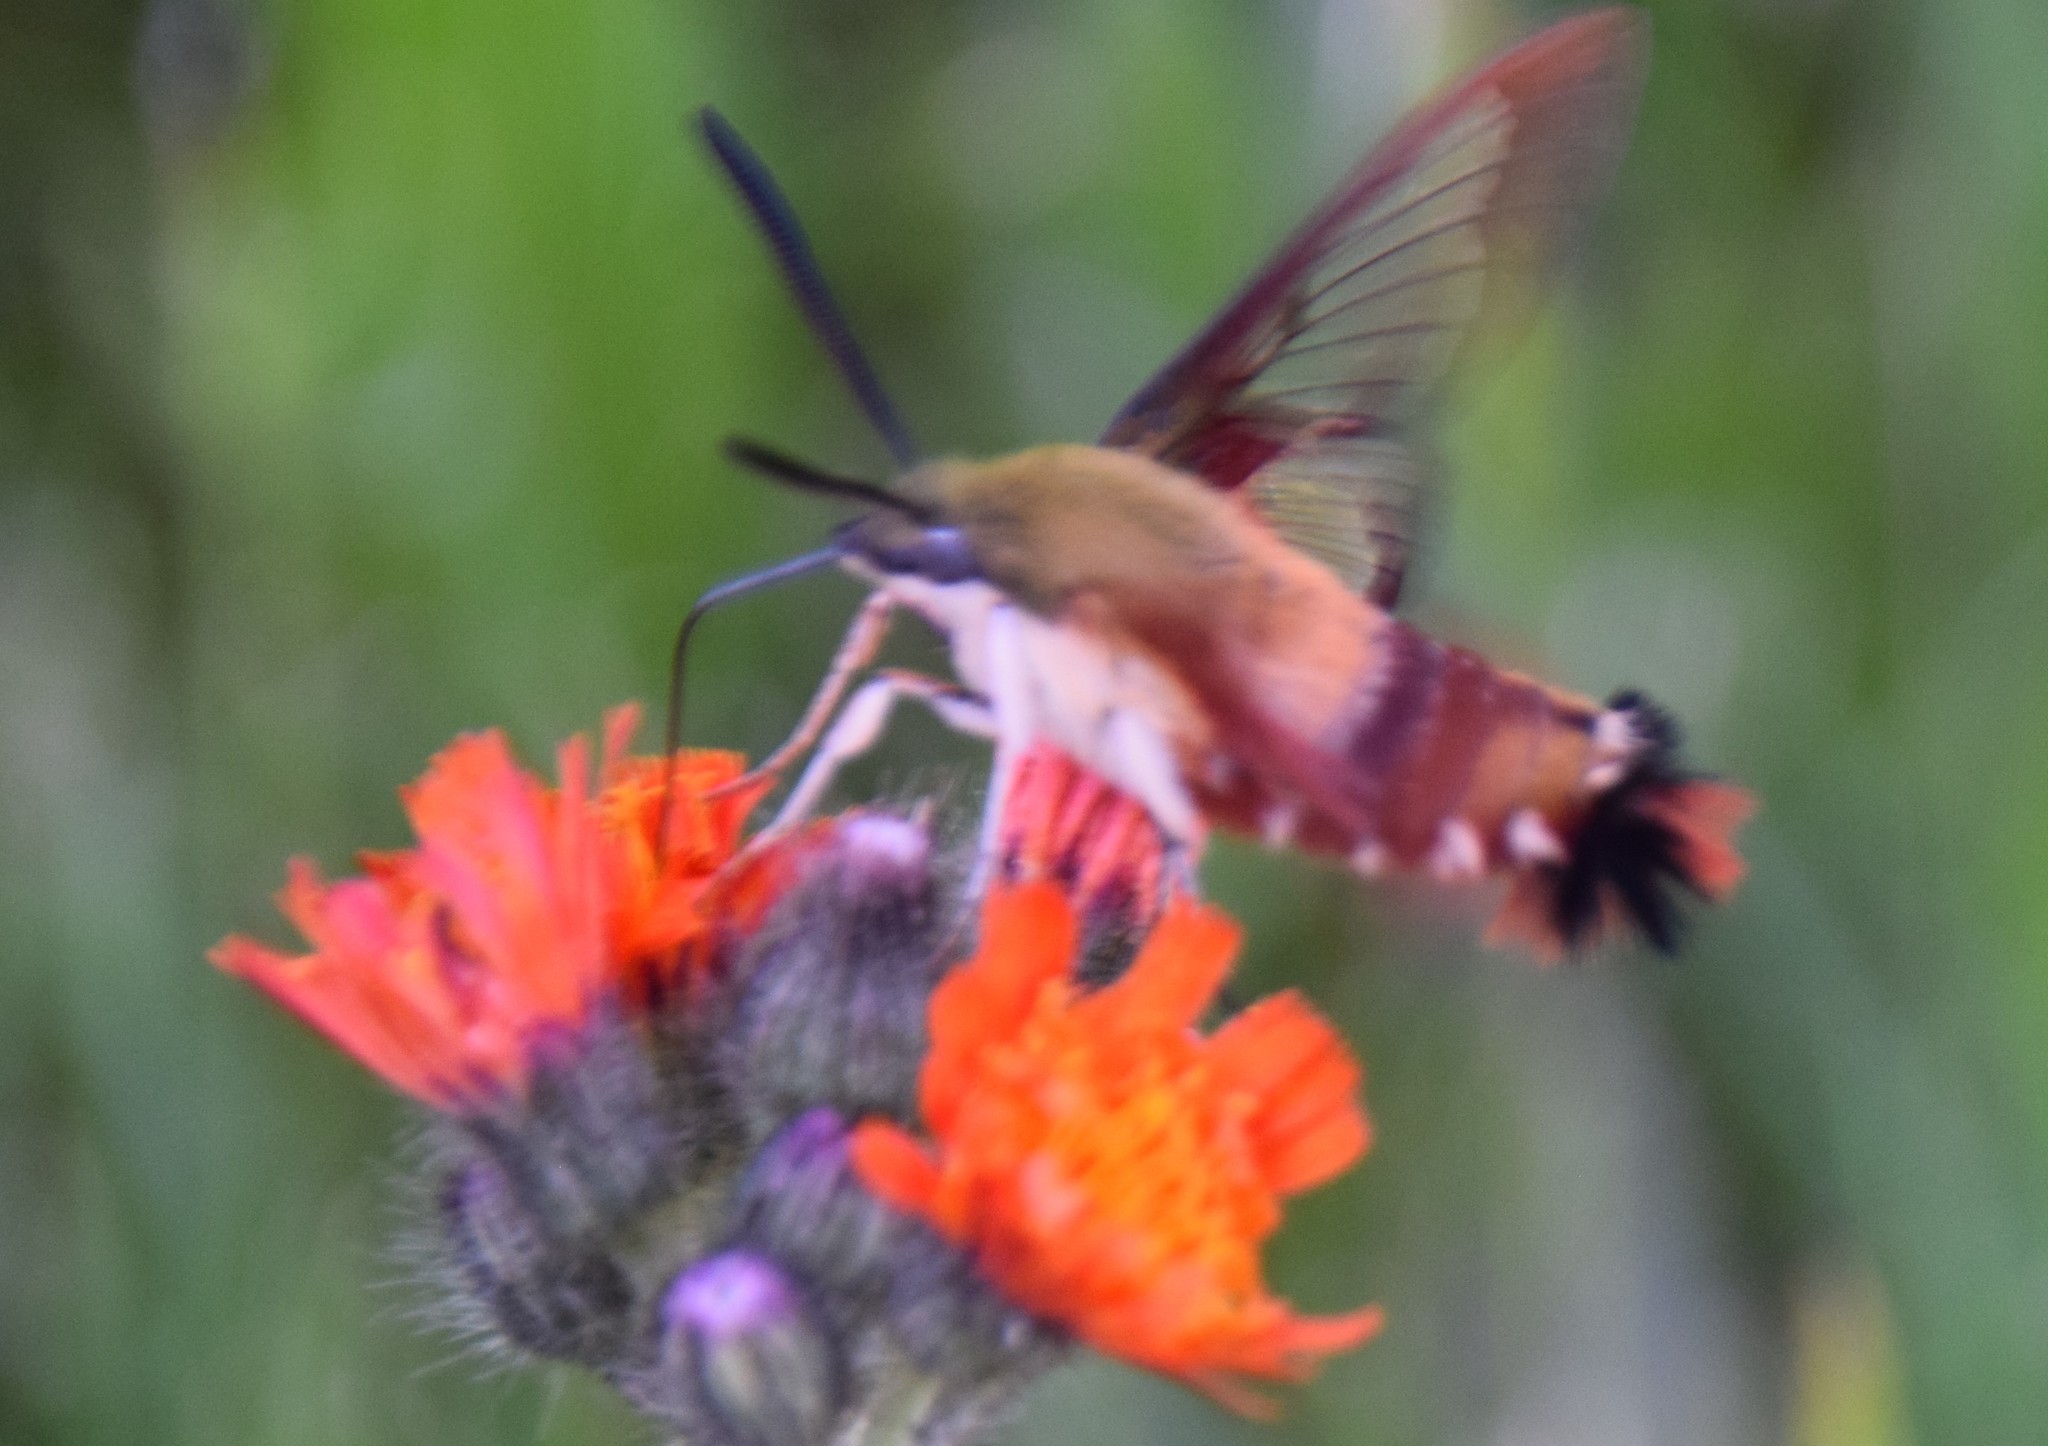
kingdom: Animalia
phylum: Arthropoda
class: Insecta
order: Lepidoptera
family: Sphingidae
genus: Hemaris
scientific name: Hemaris thysbe
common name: Common clear-wing
